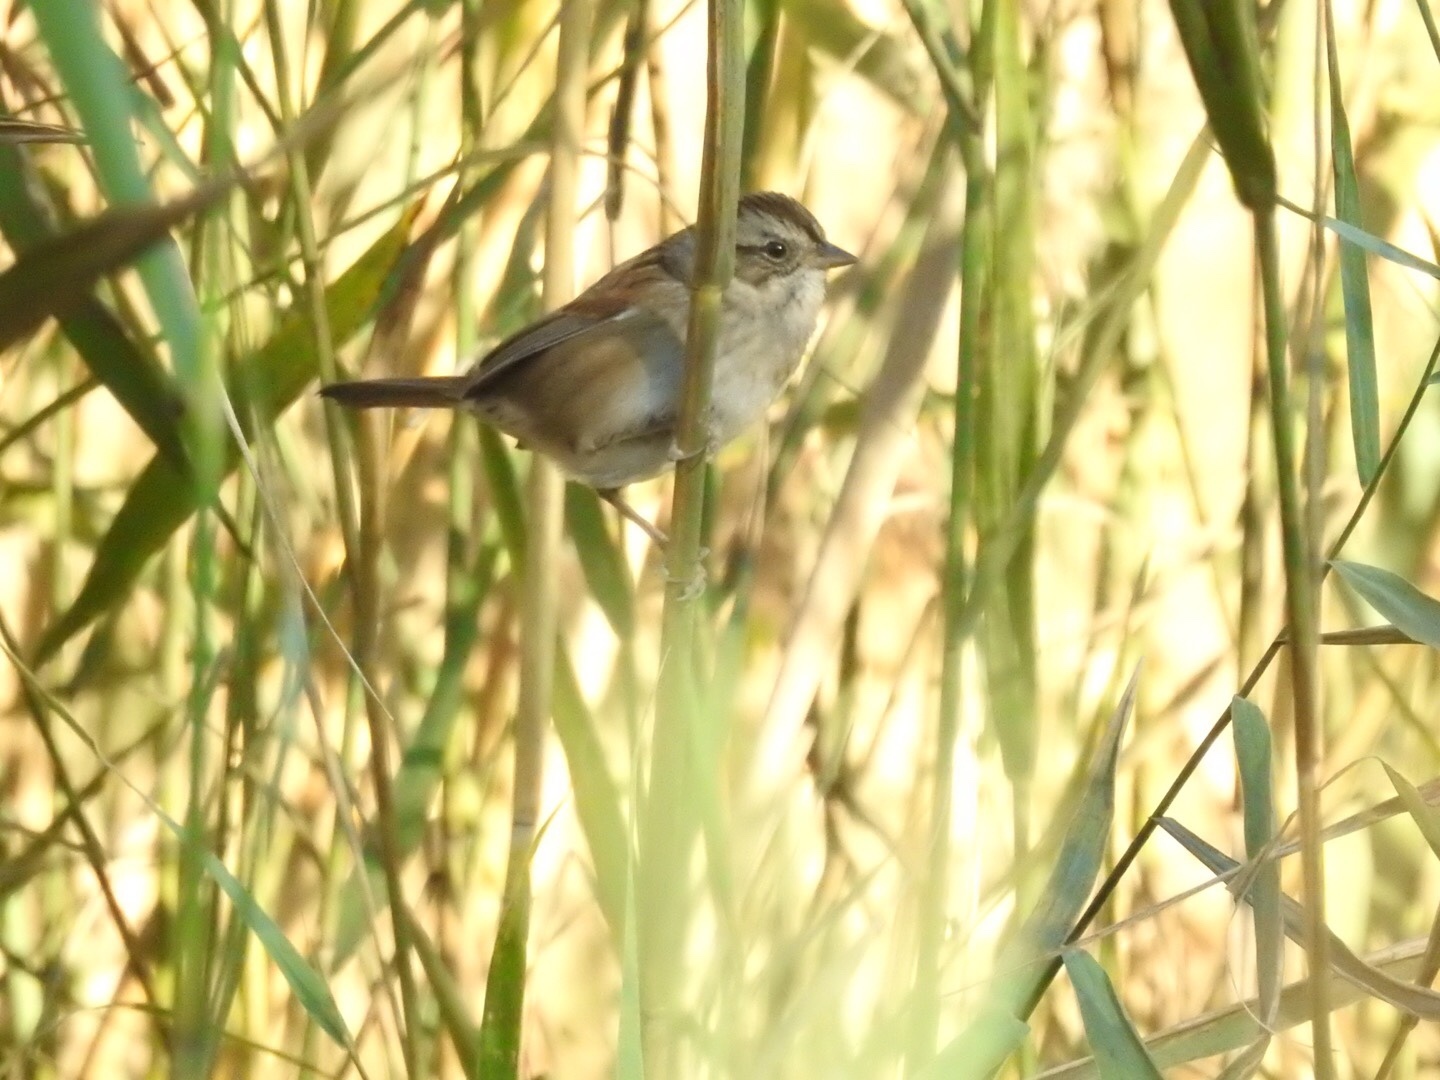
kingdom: Animalia
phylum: Chordata
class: Aves
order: Passeriformes
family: Passerellidae
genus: Melospiza
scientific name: Melospiza georgiana
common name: Swamp sparrow
